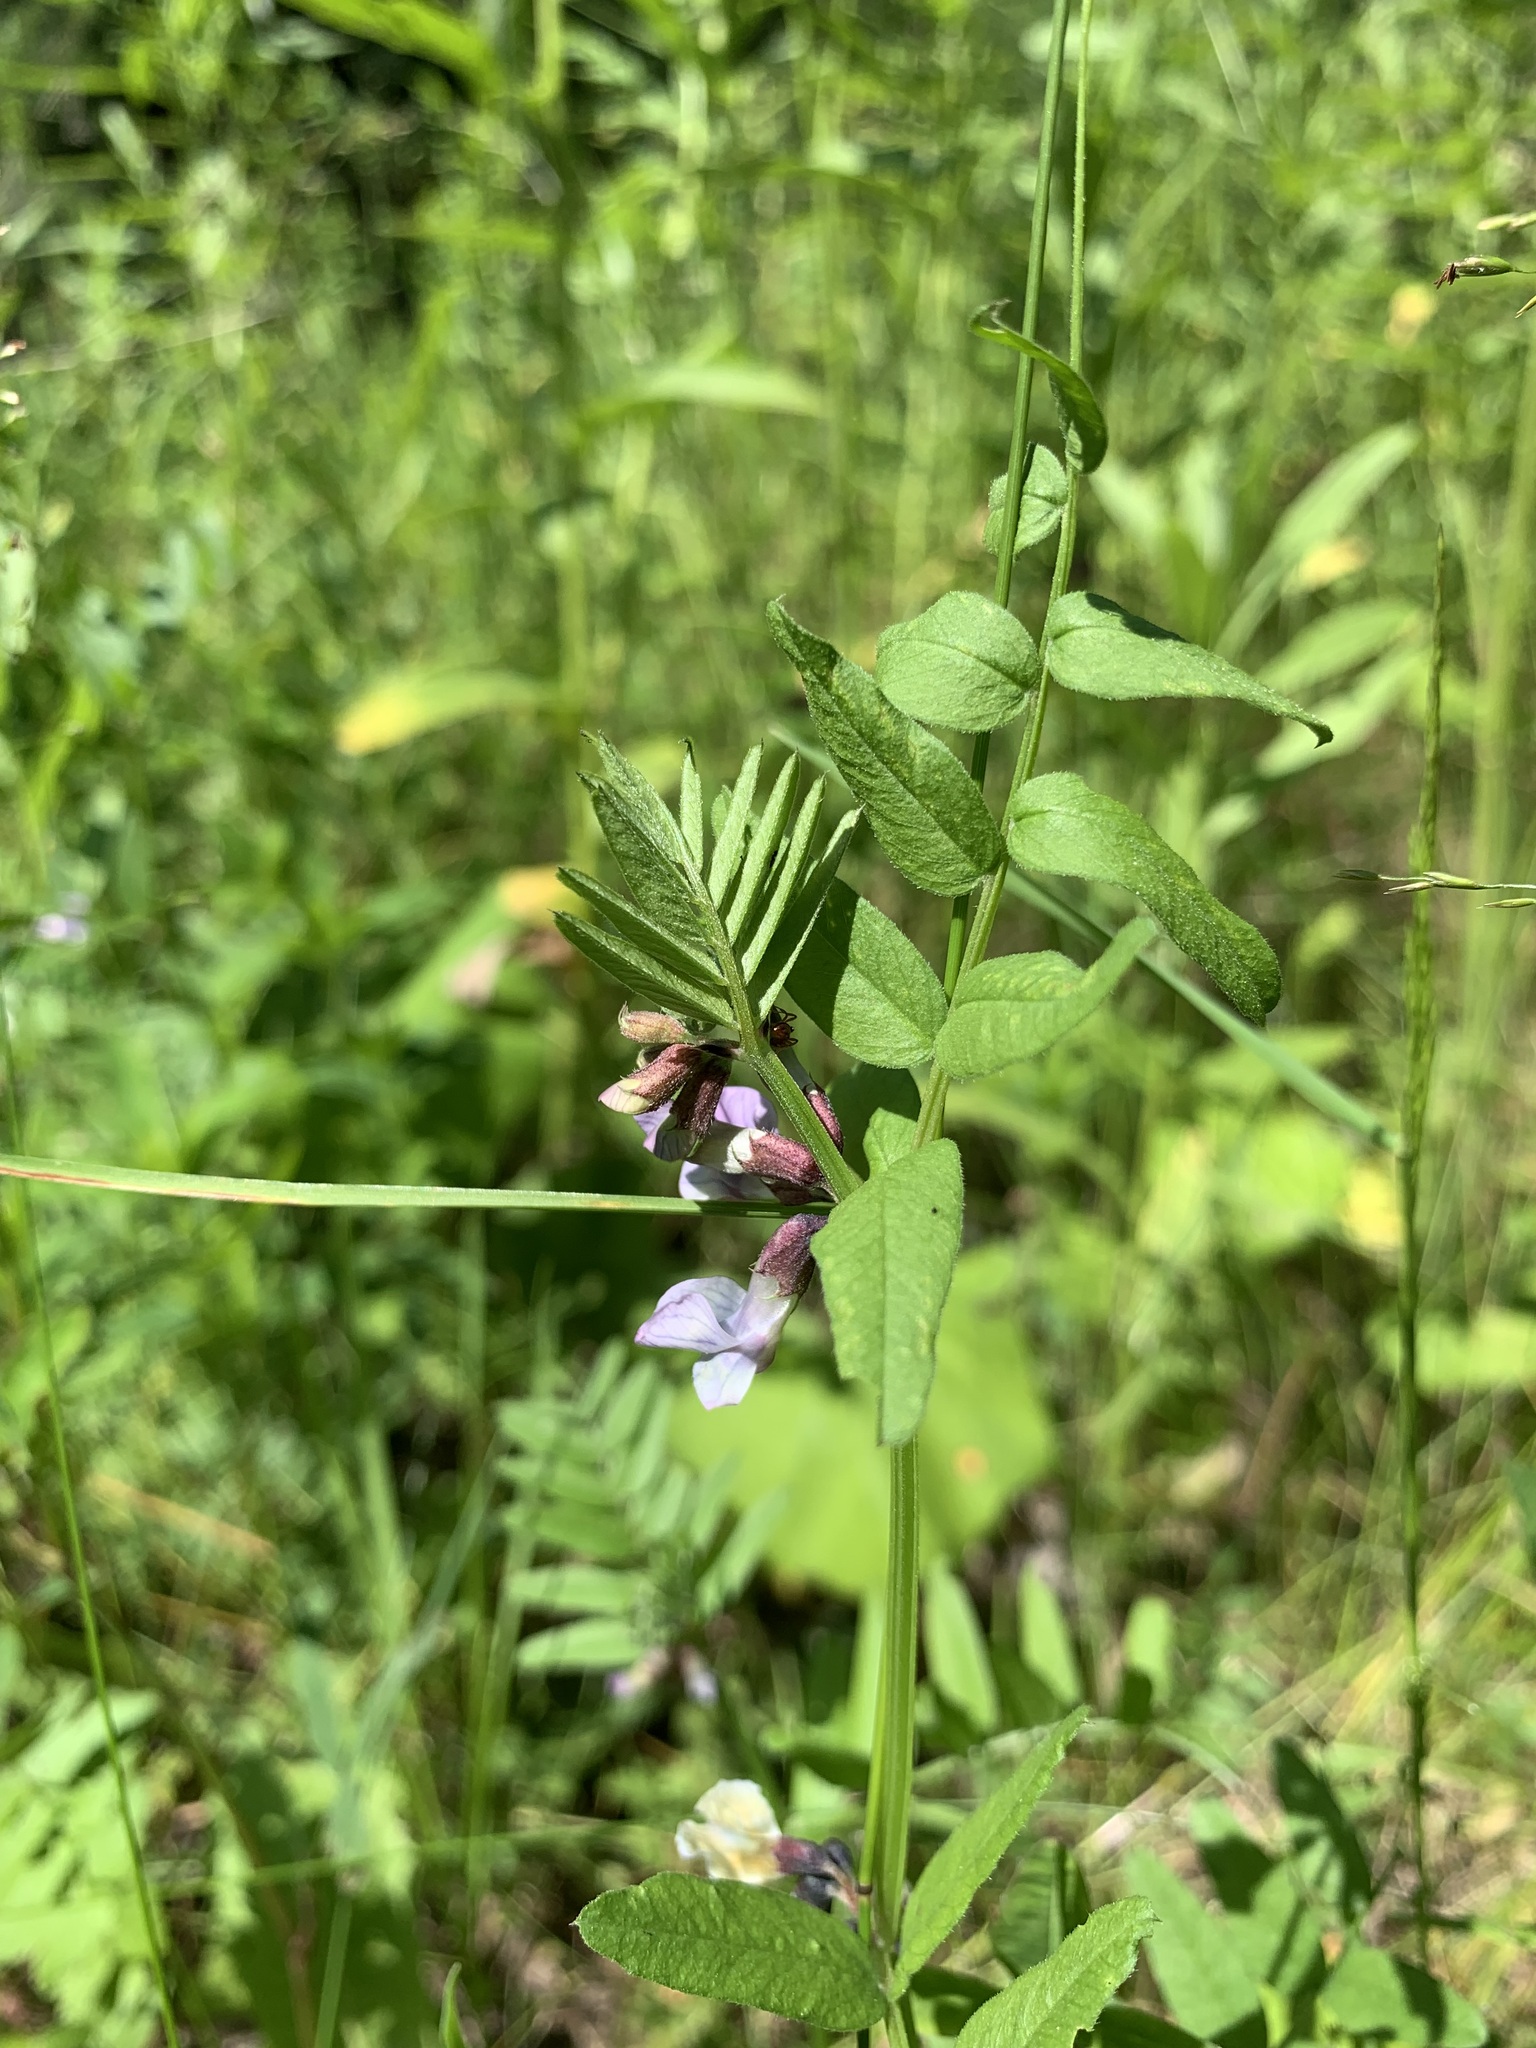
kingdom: Plantae
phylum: Tracheophyta
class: Magnoliopsida
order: Fabales
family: Fabaceae
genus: Vicia
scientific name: Vicia sepium
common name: Bush vetch
